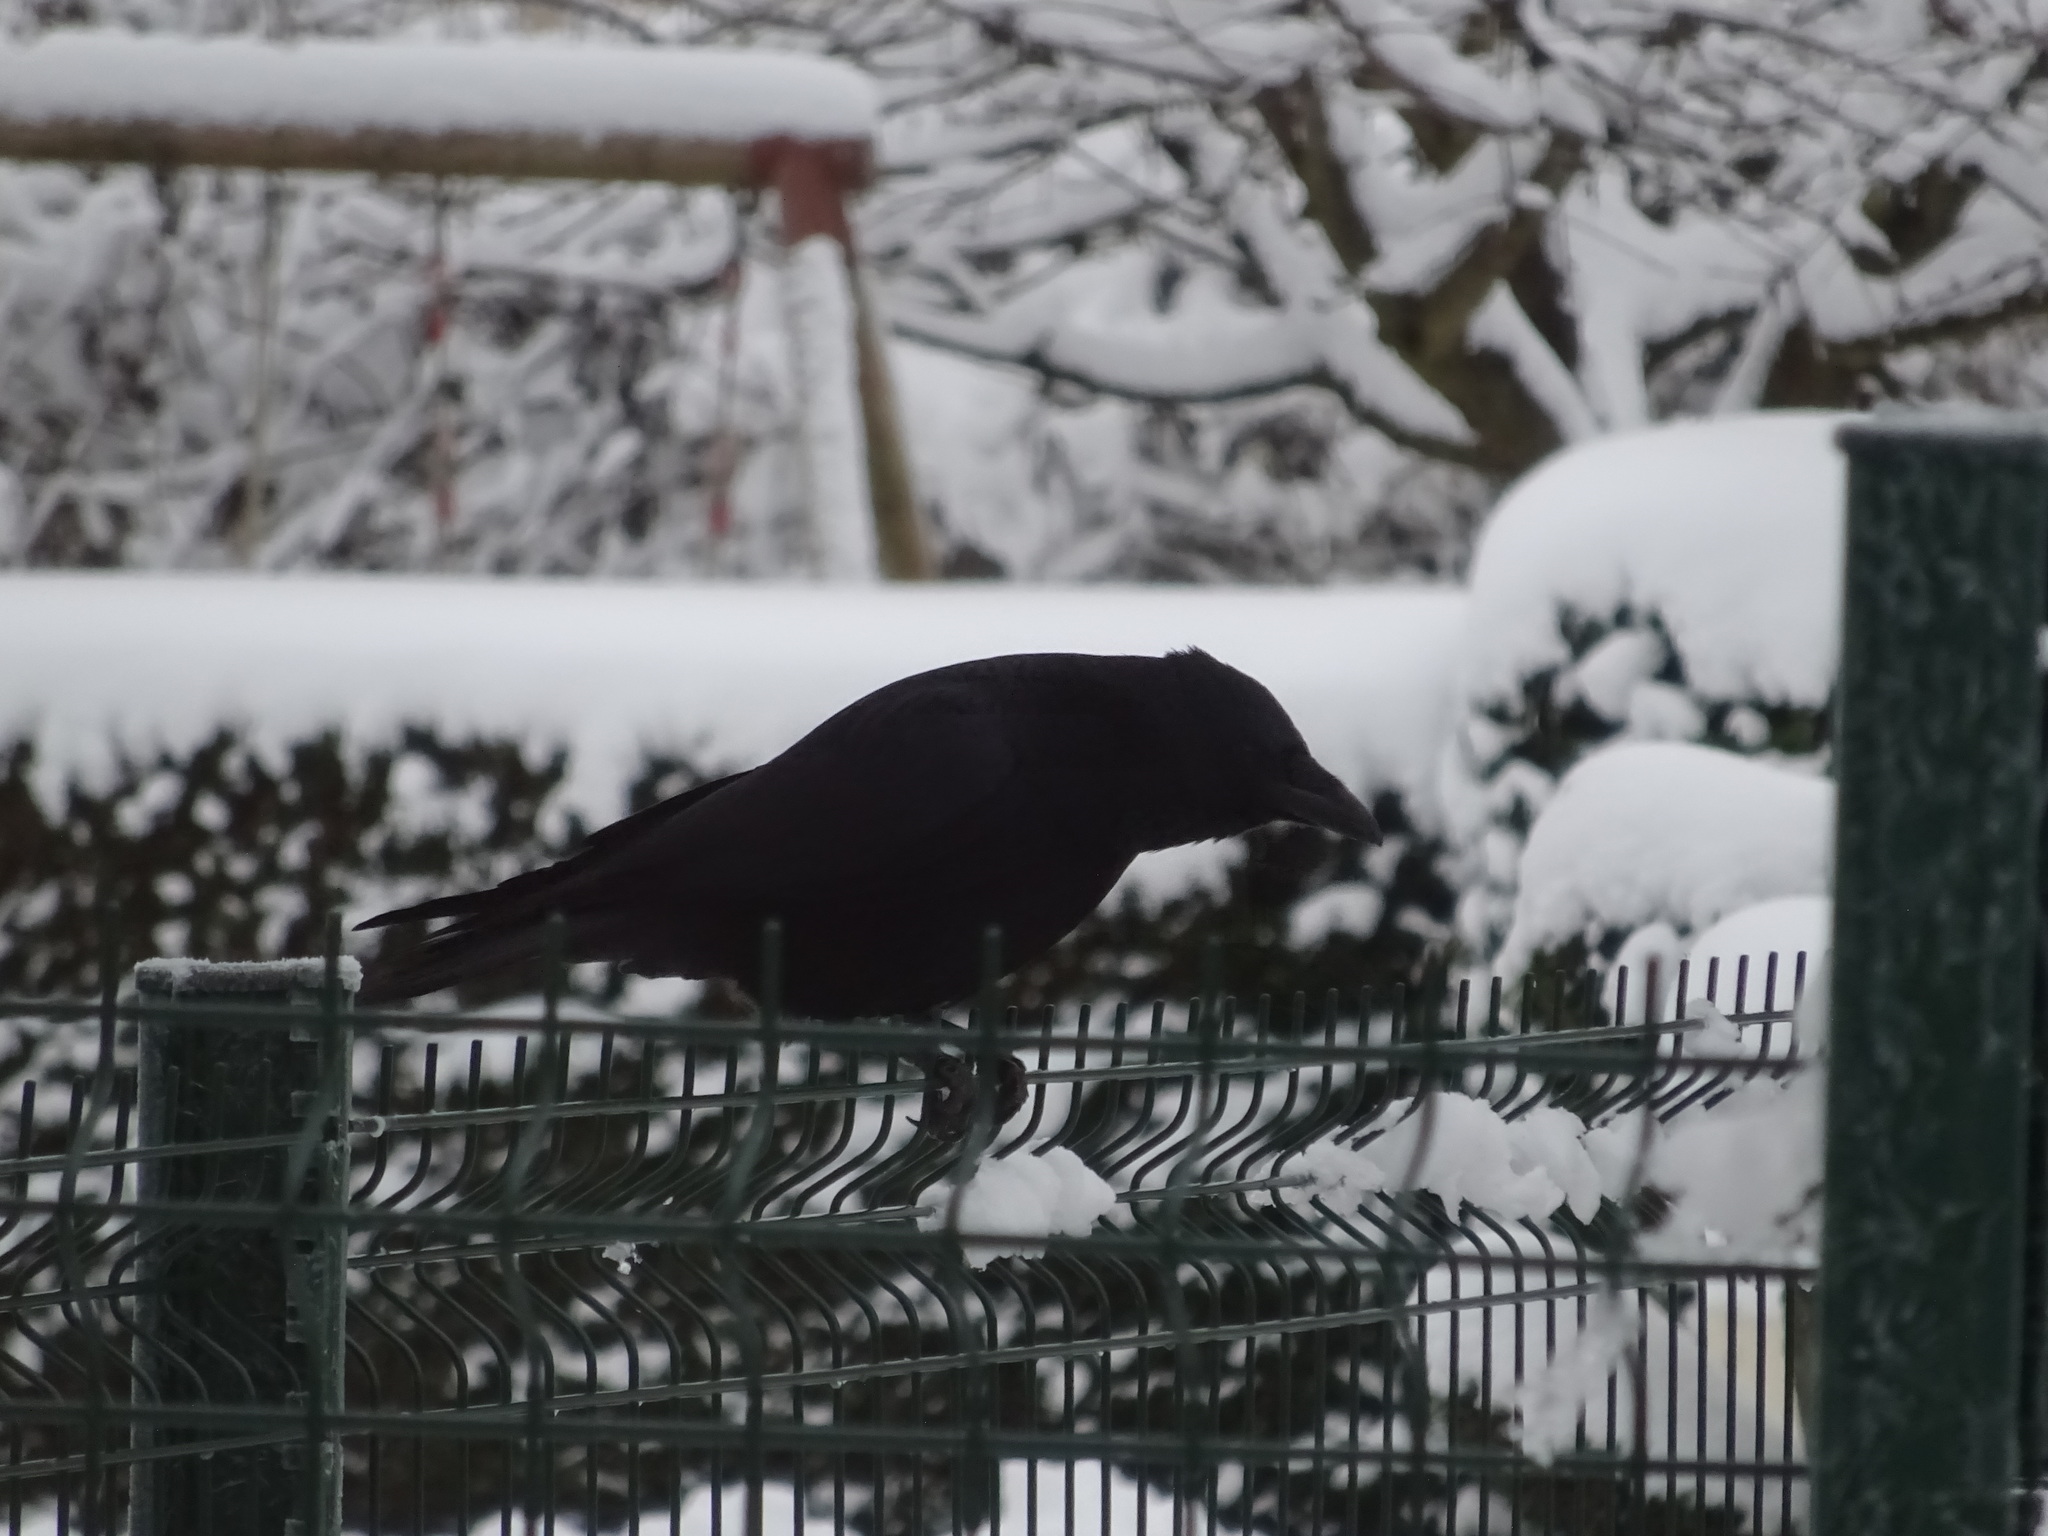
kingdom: Animalia
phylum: Chordata
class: Aves
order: Passeriformes
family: Corvidae
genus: Corvus
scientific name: Corvus corone
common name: Carrion crow
